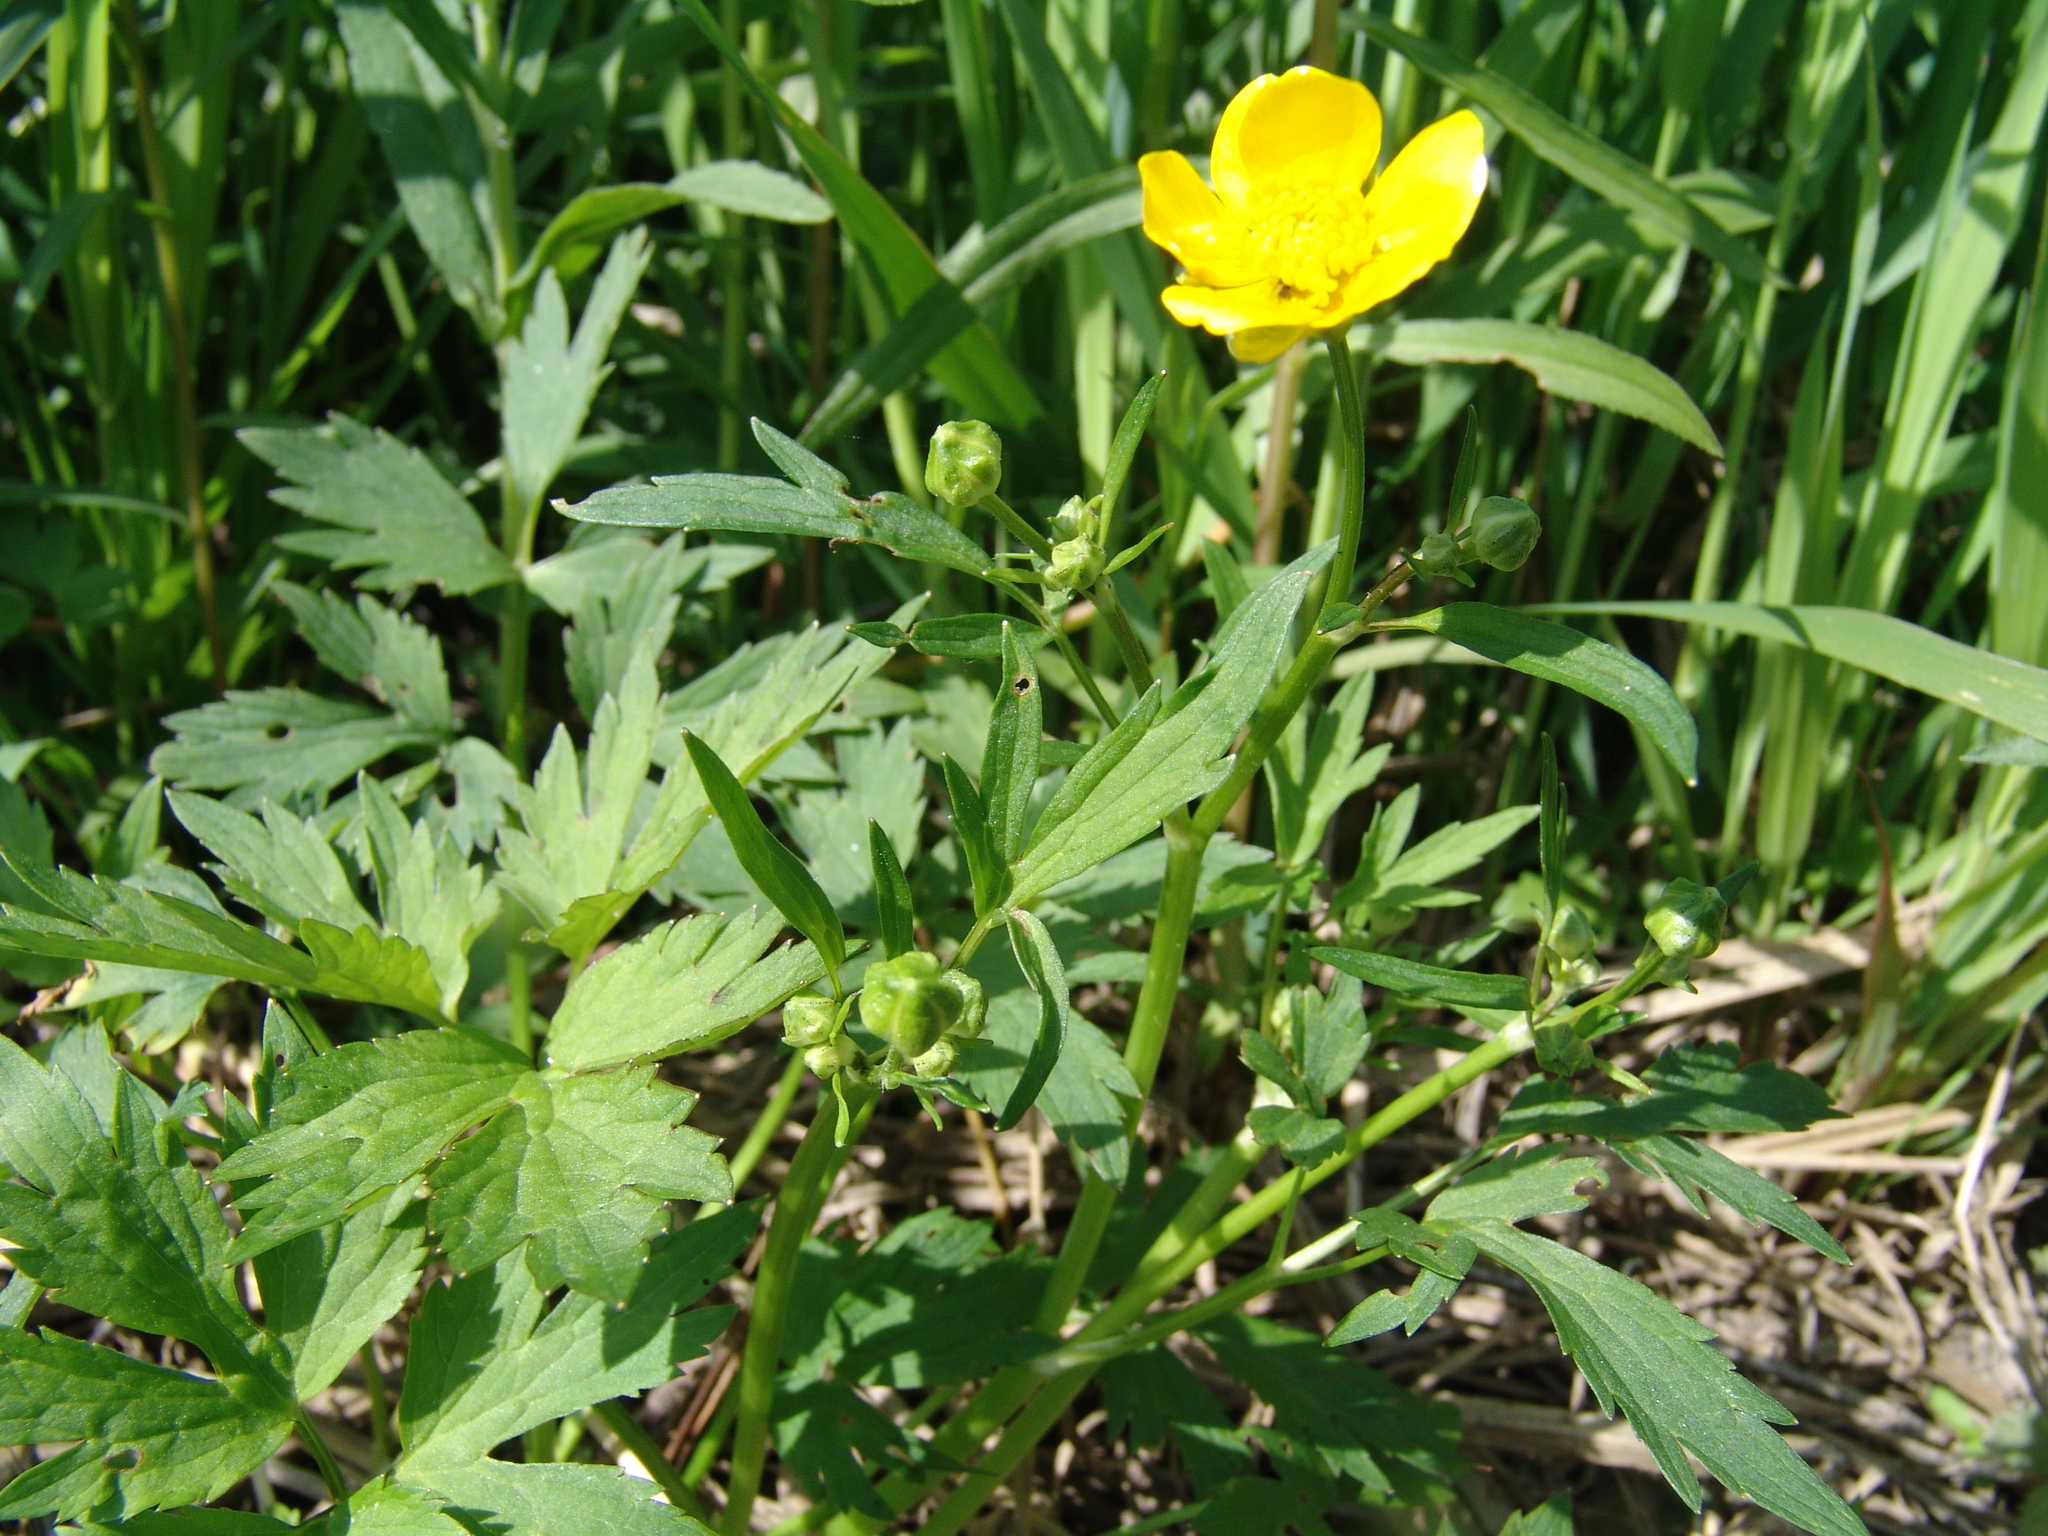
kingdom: Plantae
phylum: Tracheophyta
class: Magnoliopsida
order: Ranunculales
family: Ranunculaceae
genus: Ranunculus
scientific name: Ranunculus repens
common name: Creeping buttercup
